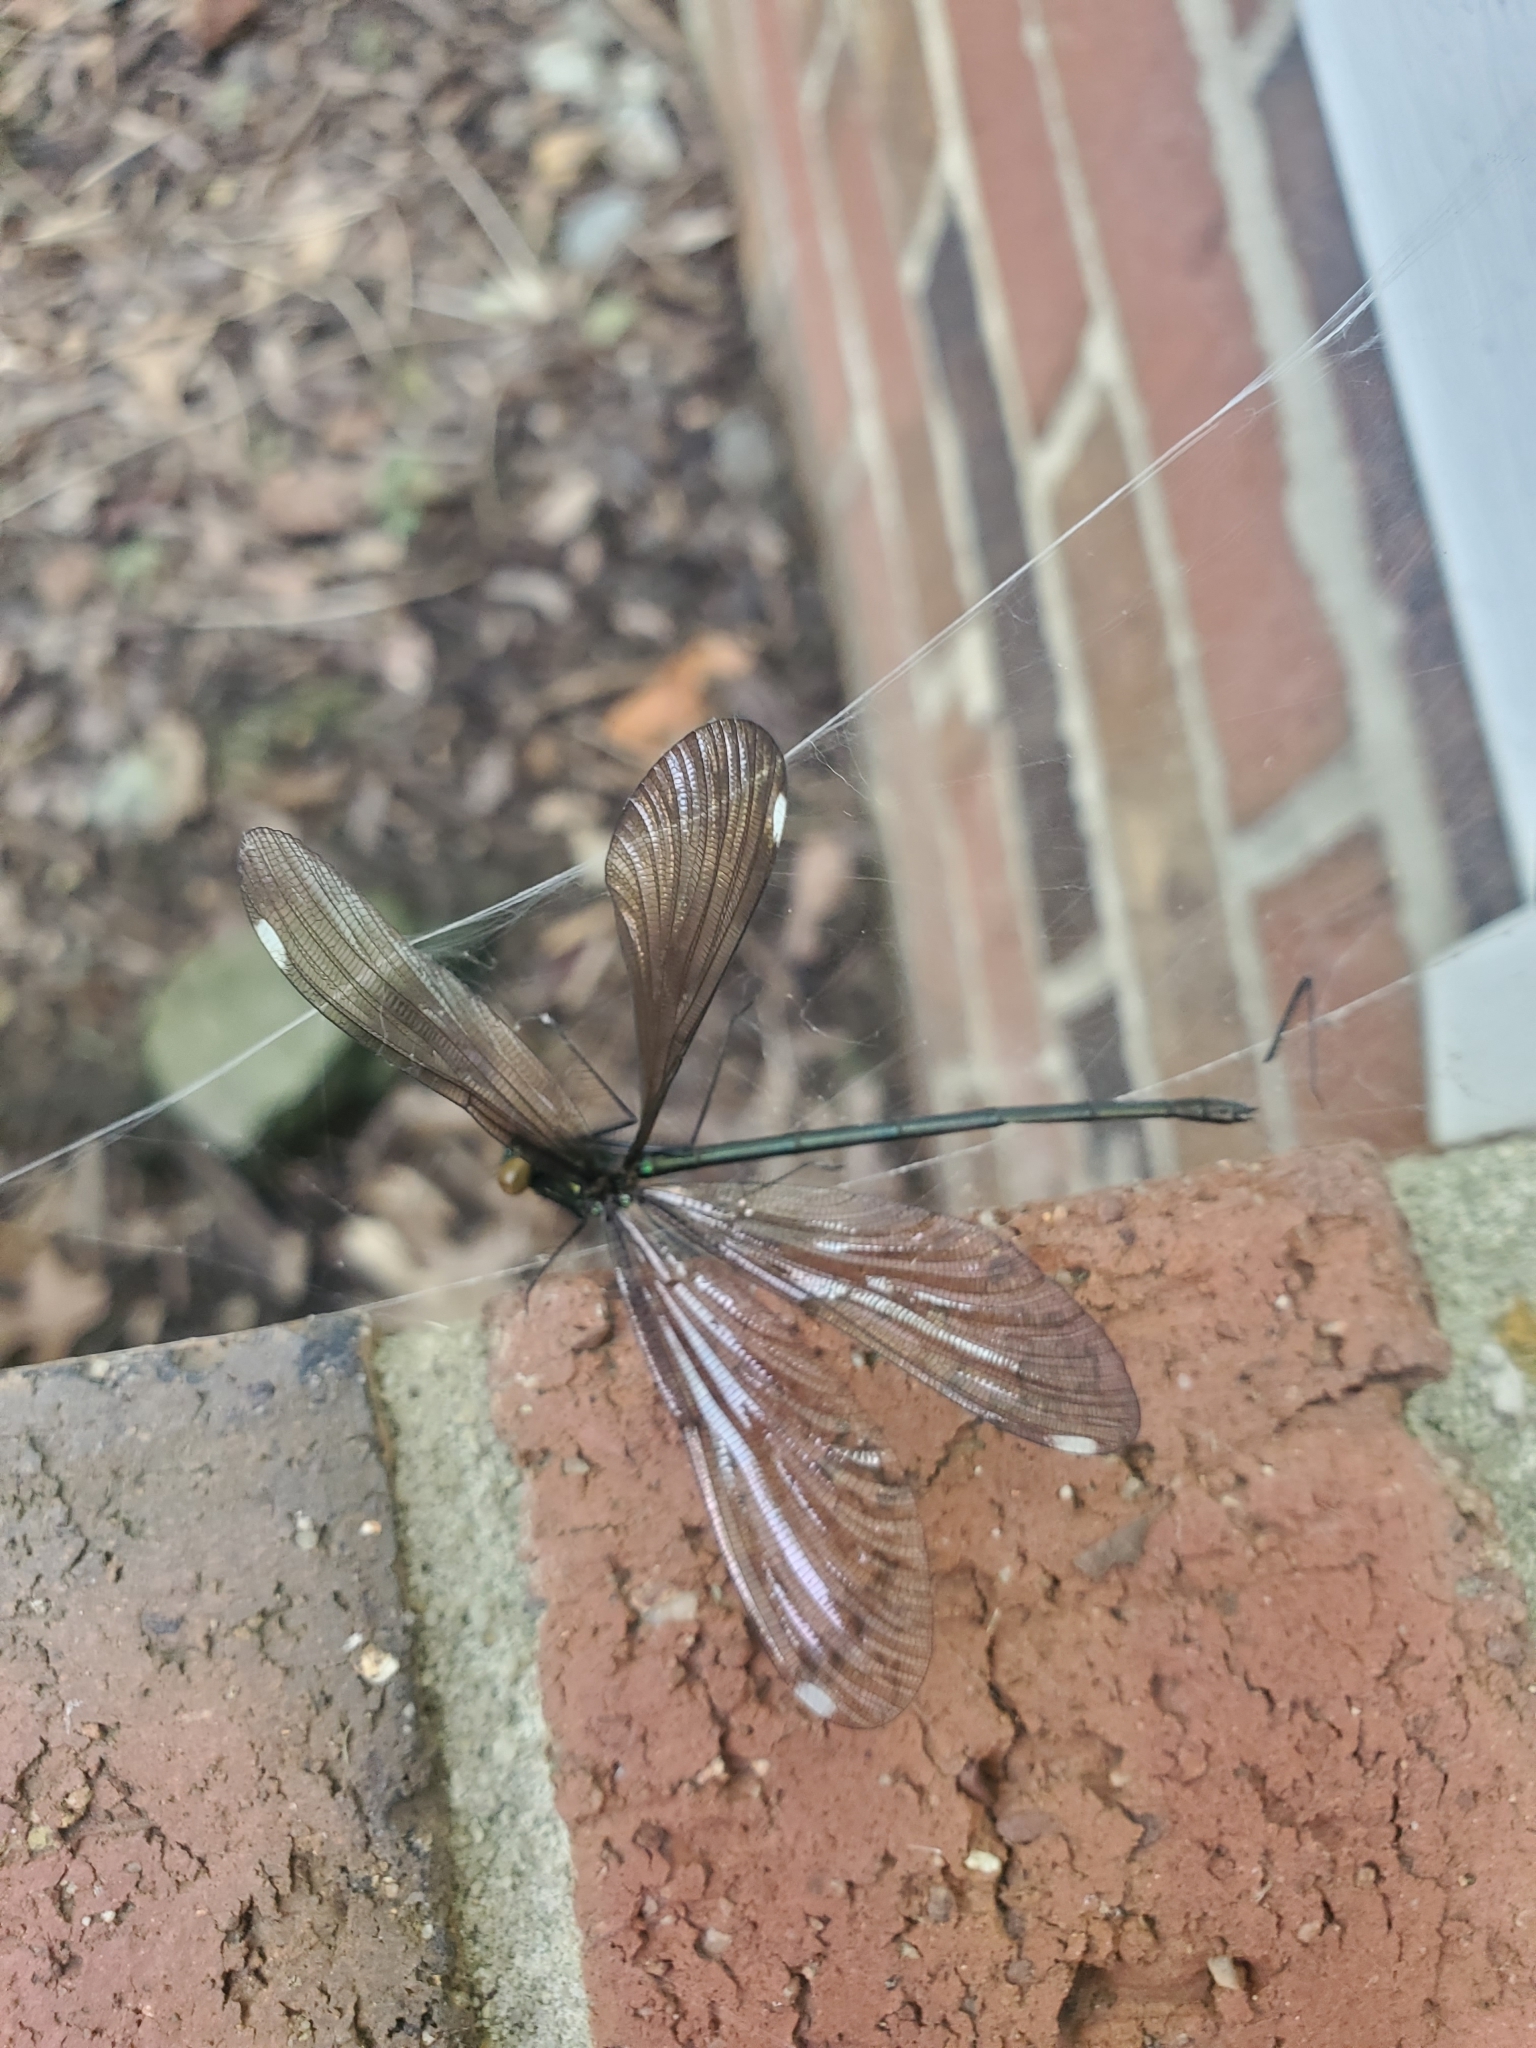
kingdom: Animalia
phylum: Arthropoda
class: Insecta
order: Odonata
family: Calopterygidae
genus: Calopteryx
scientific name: Calopteryx maculata
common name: Ebony jewelwing
